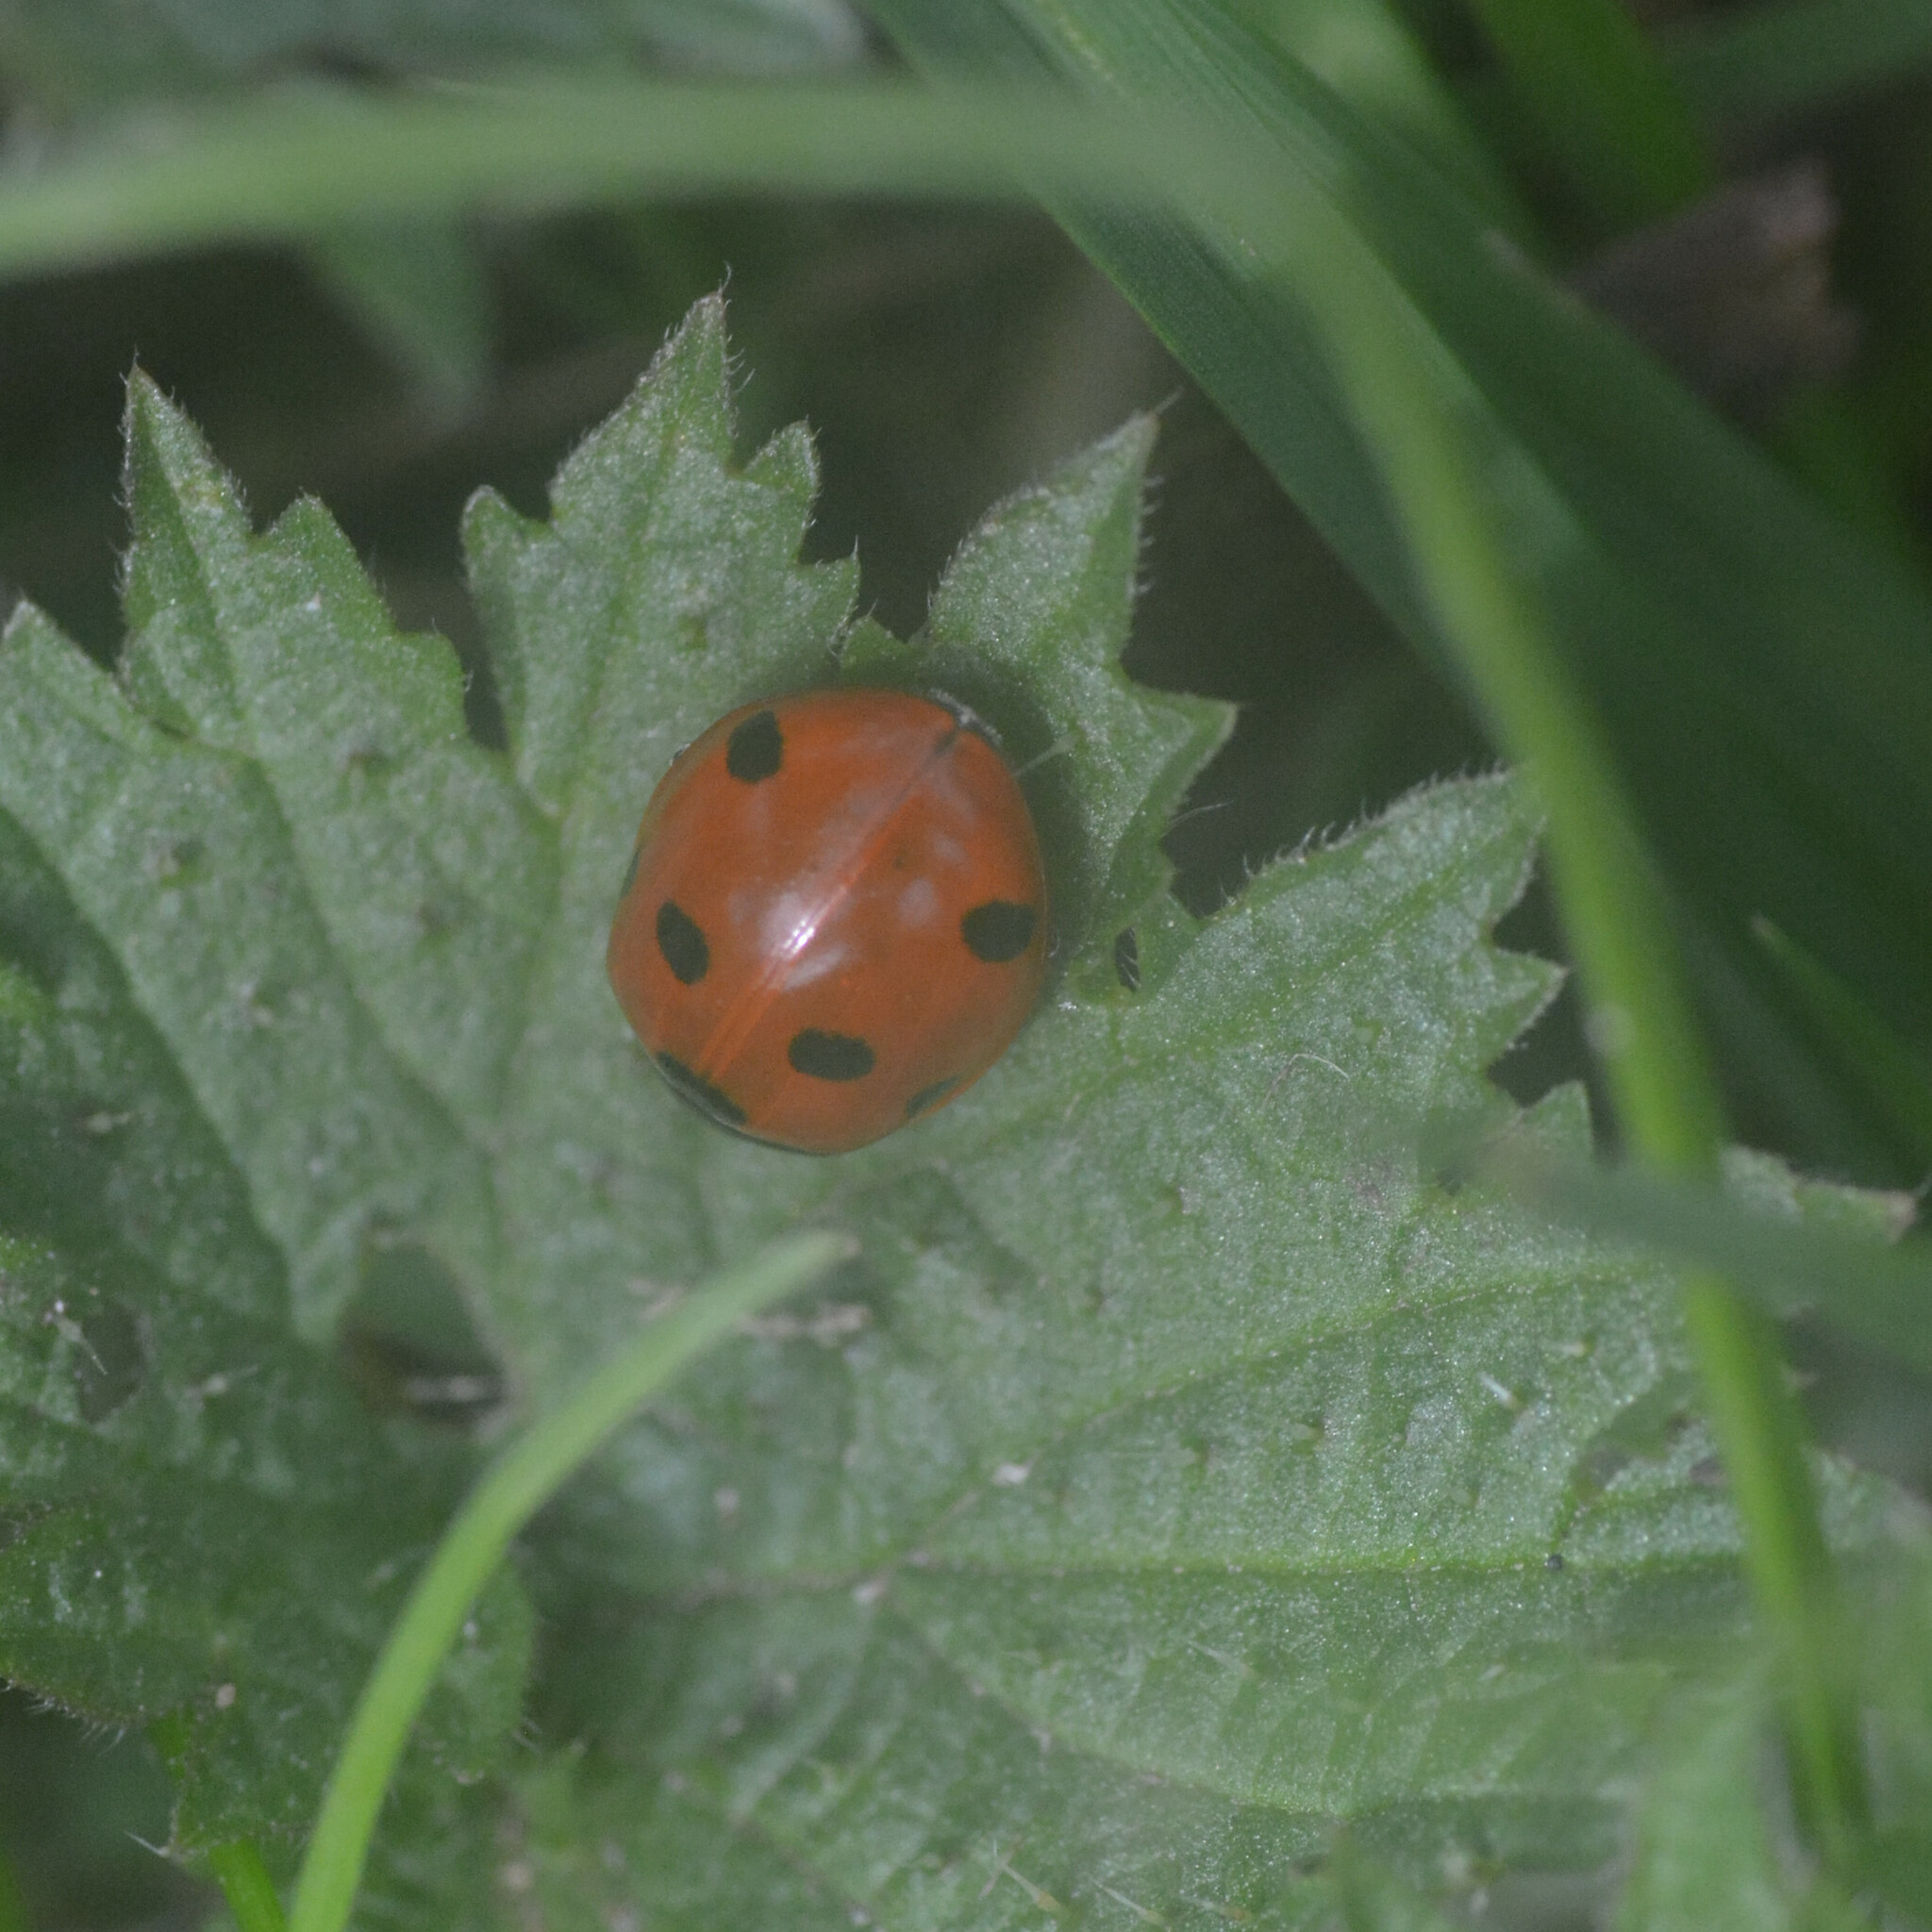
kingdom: Animalia
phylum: Arthropoda
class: Insecta
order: Coleoptera
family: Coccinellidae
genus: Coccinella
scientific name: Coccinella septempunctata
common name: Sevenspotted lady beetle
